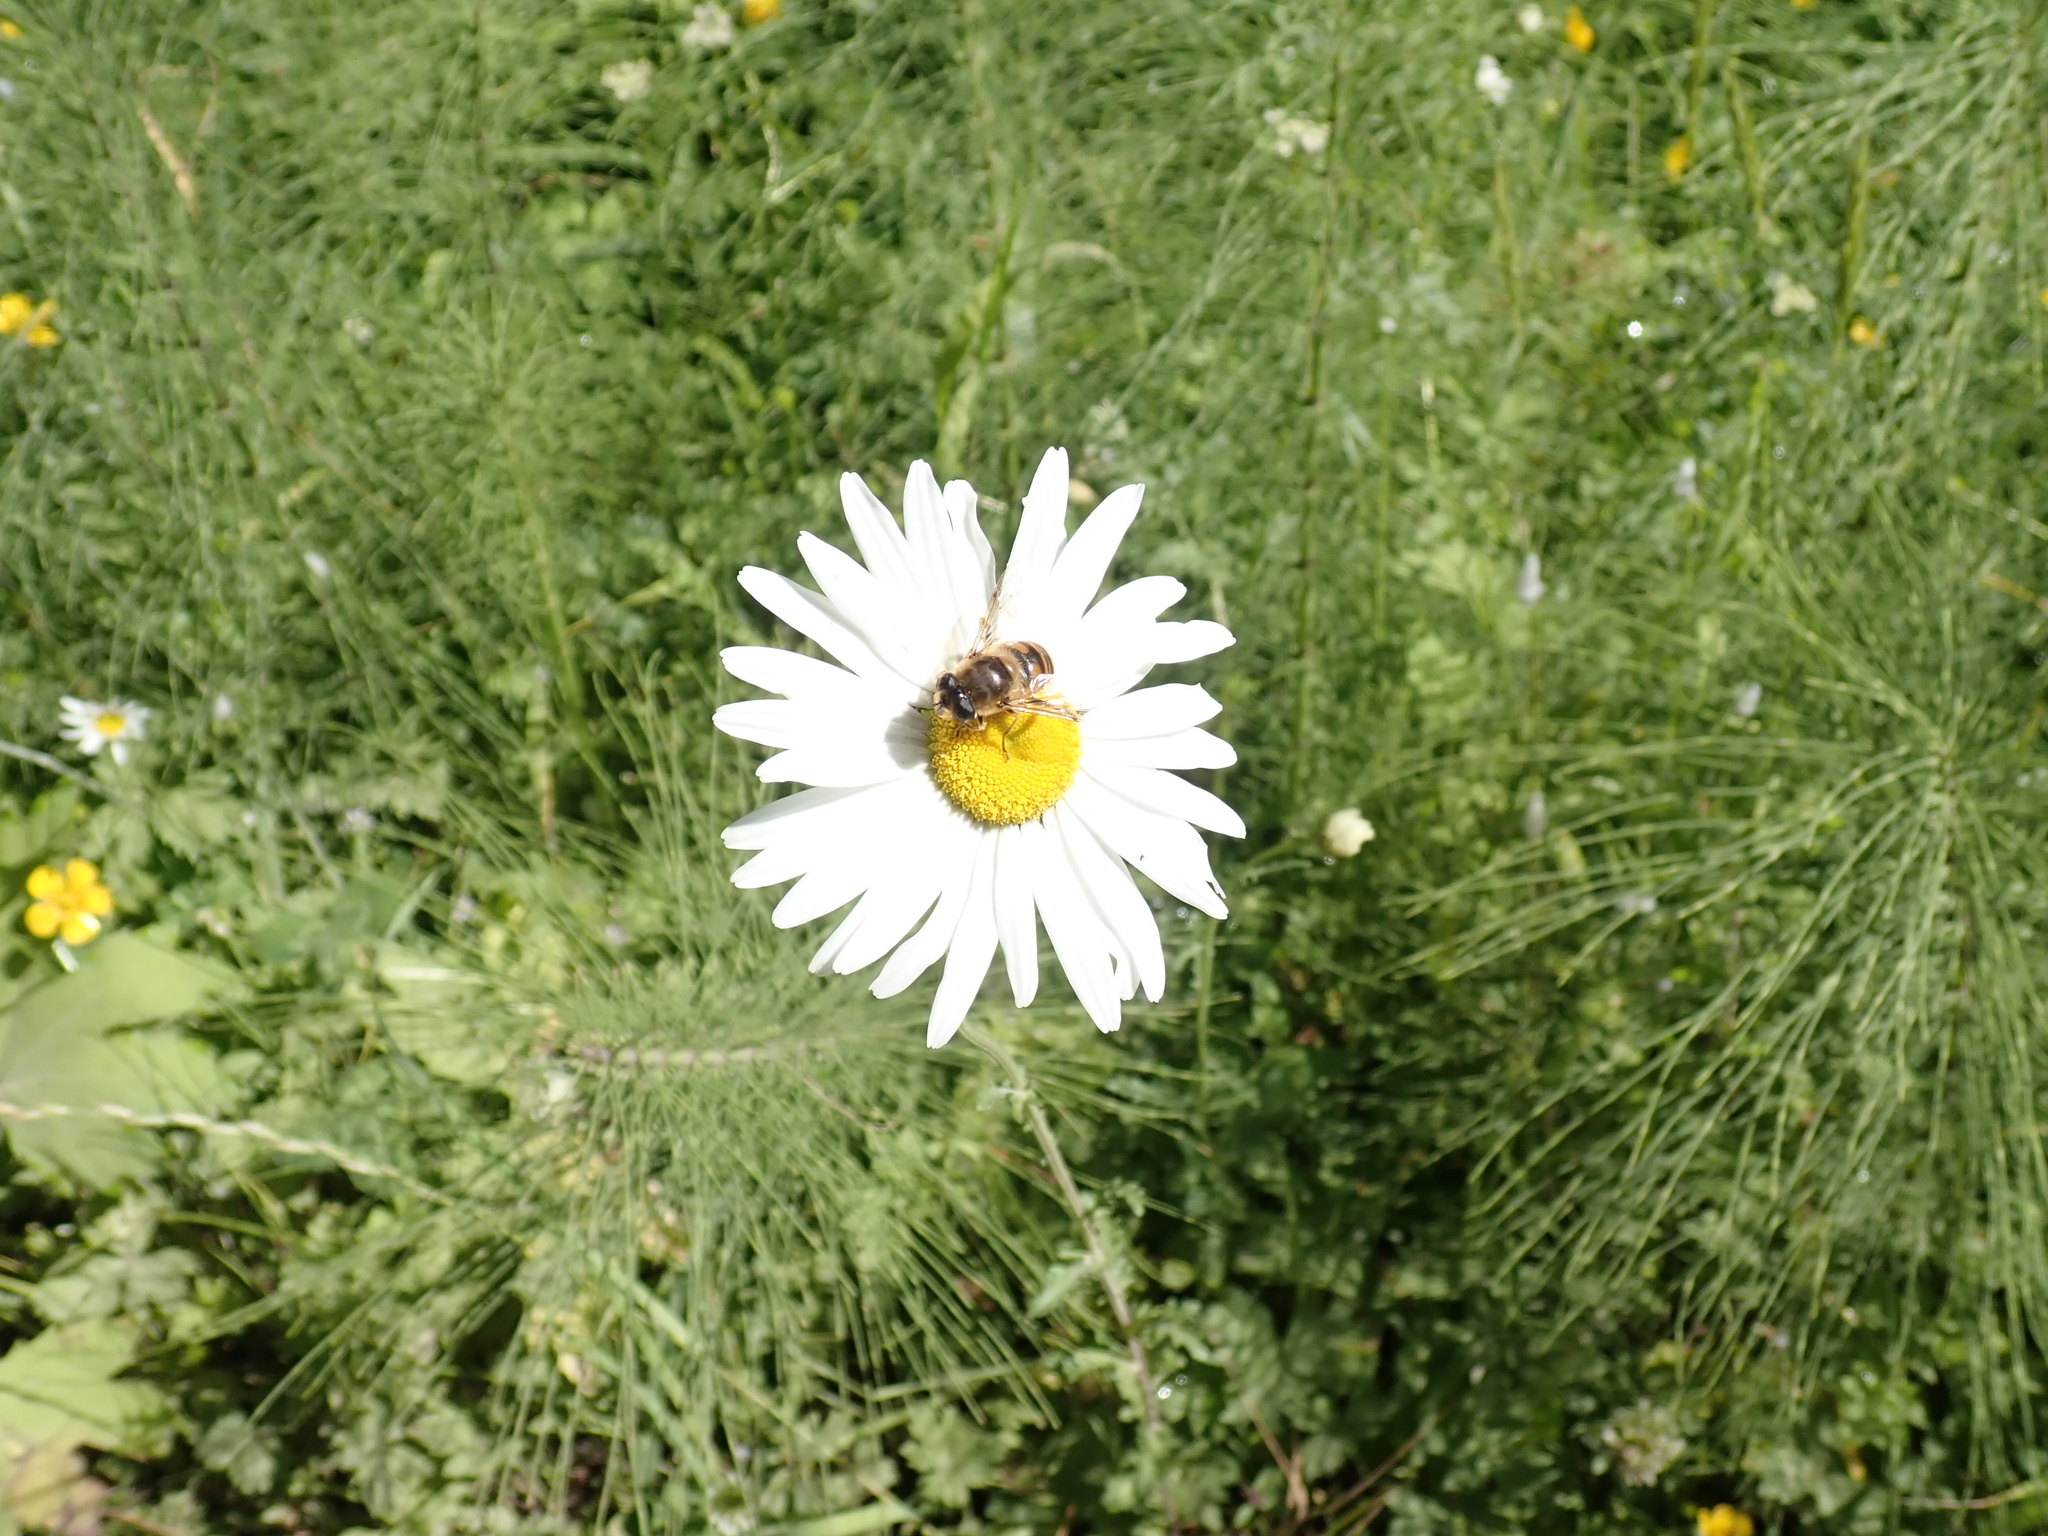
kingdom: Plantae
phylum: Tracheophyta
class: Magnoliopsida
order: Asterales
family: Asteraceae
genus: Leucanthemum
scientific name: Leucanthemum vulgare
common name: Oxeye daisy
